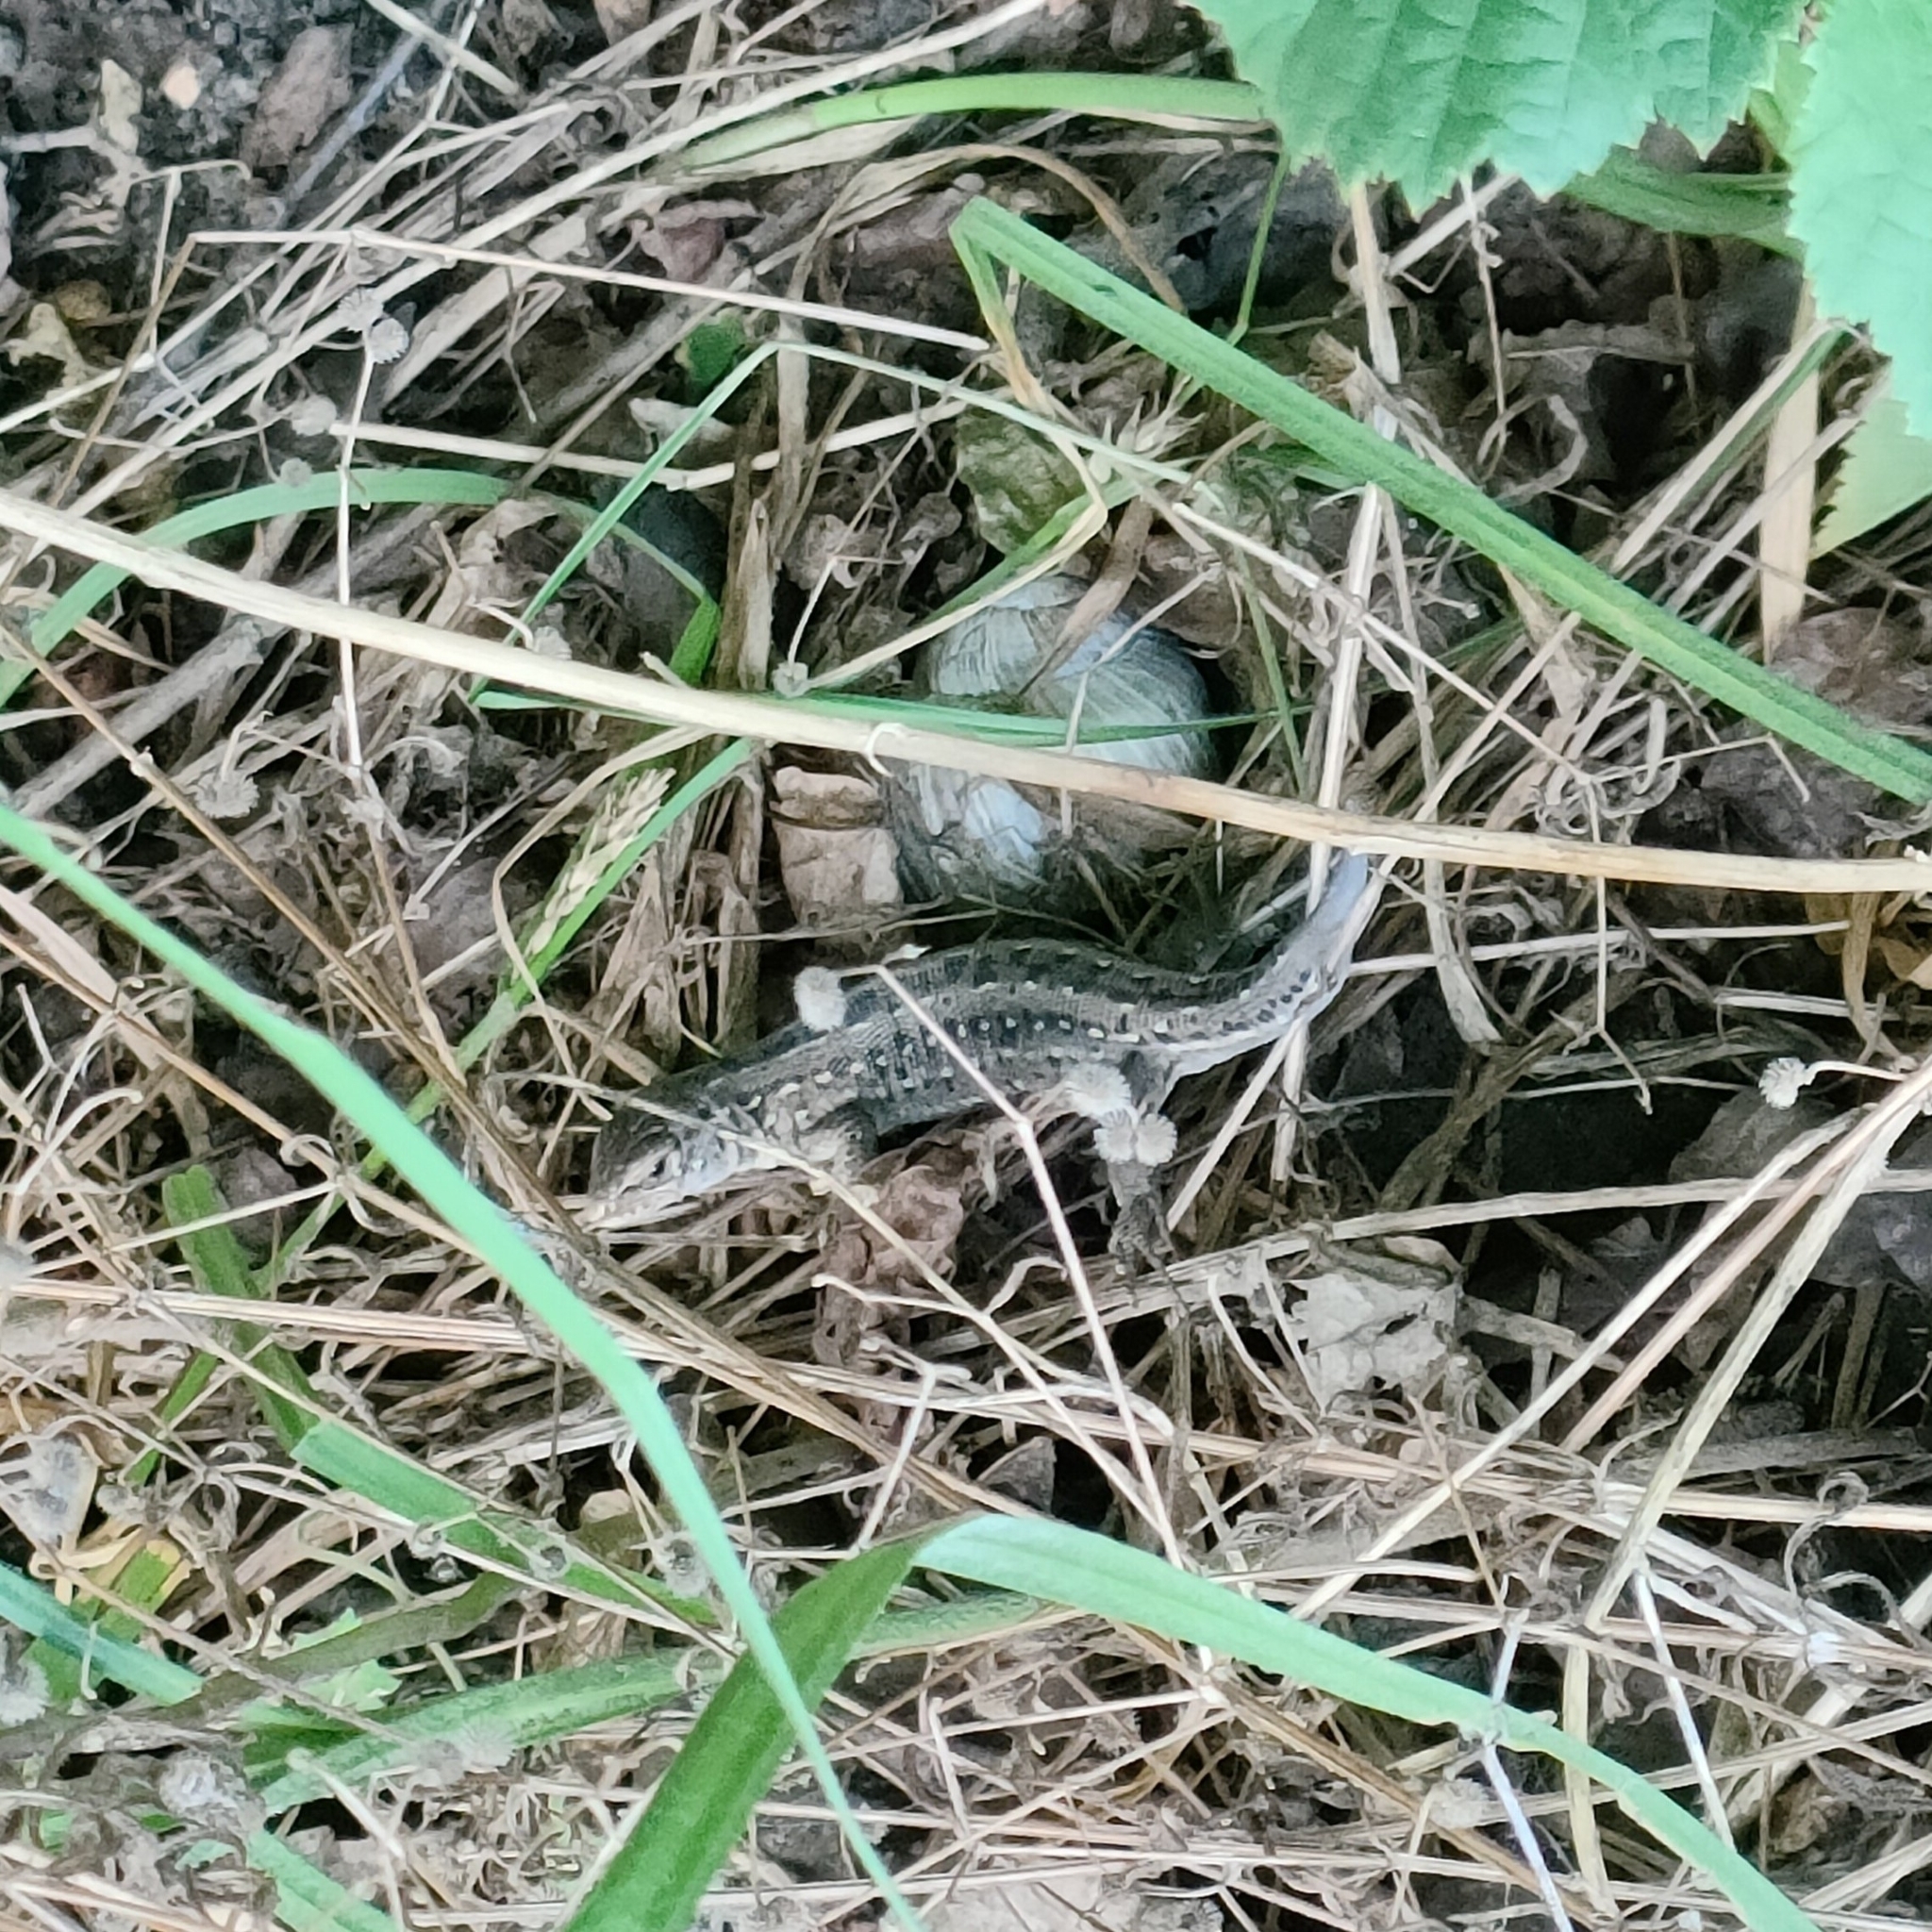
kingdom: Animalia
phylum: Chordata
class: Squamata
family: Lacertidae
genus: Lacerta
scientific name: Lacerta agilis
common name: Sand lizard
